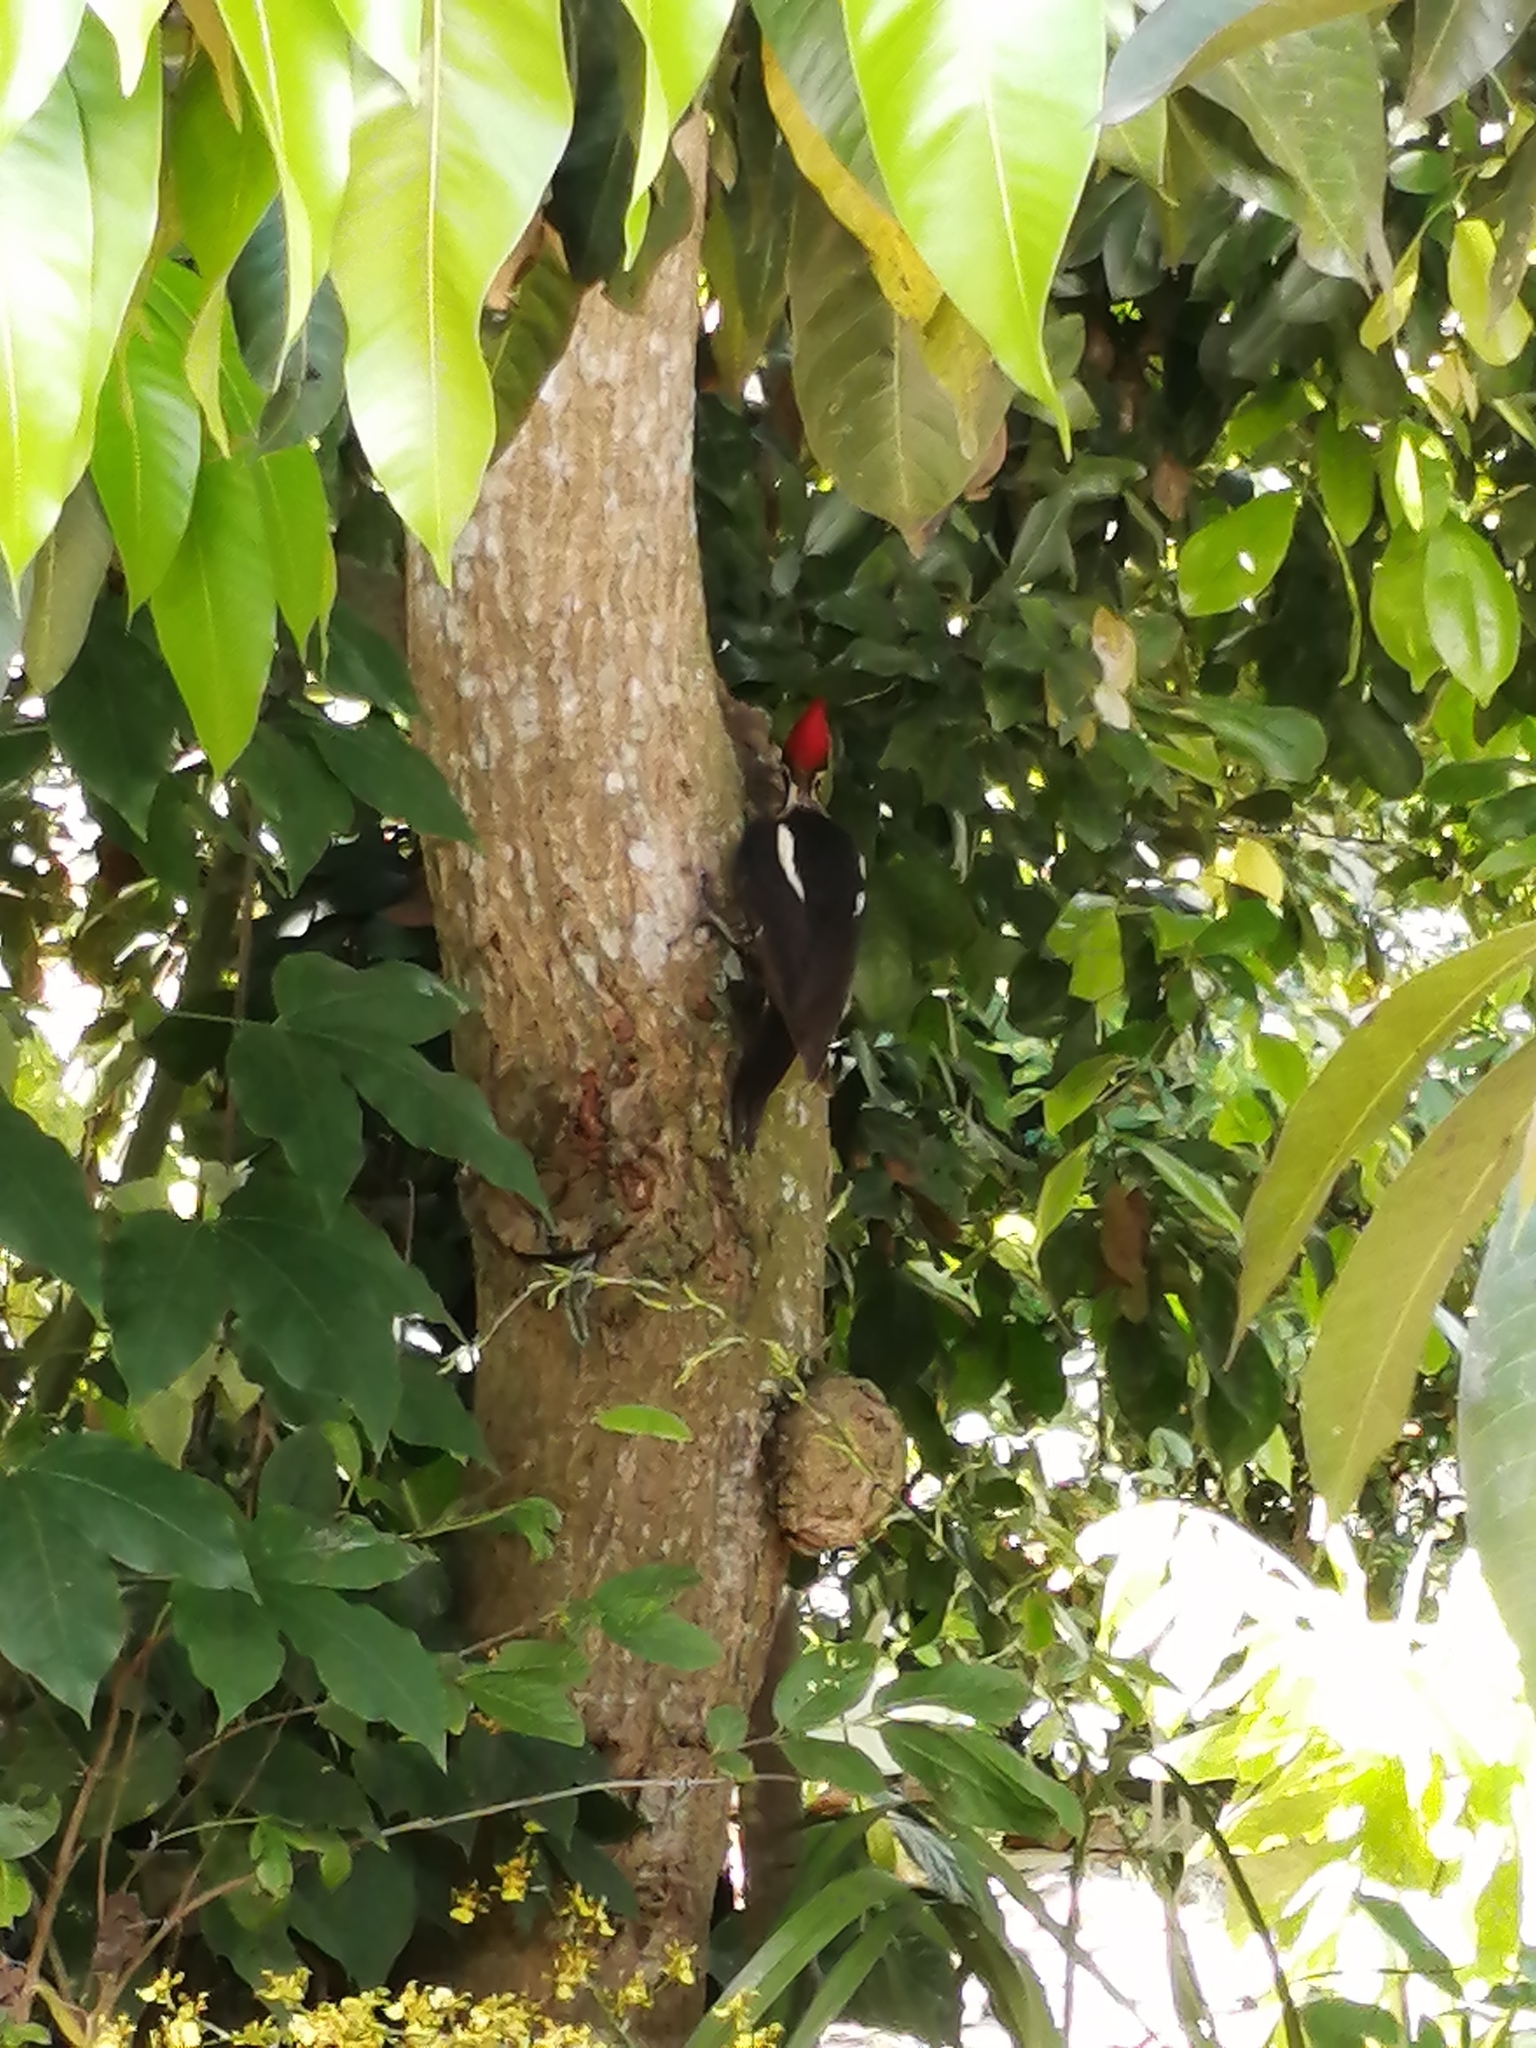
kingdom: Animalia
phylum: Chordata
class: Aves
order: Piciformes
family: Picidae
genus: Dryocopus
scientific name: Dryocopus lineatus
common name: Lineated woodpecker
